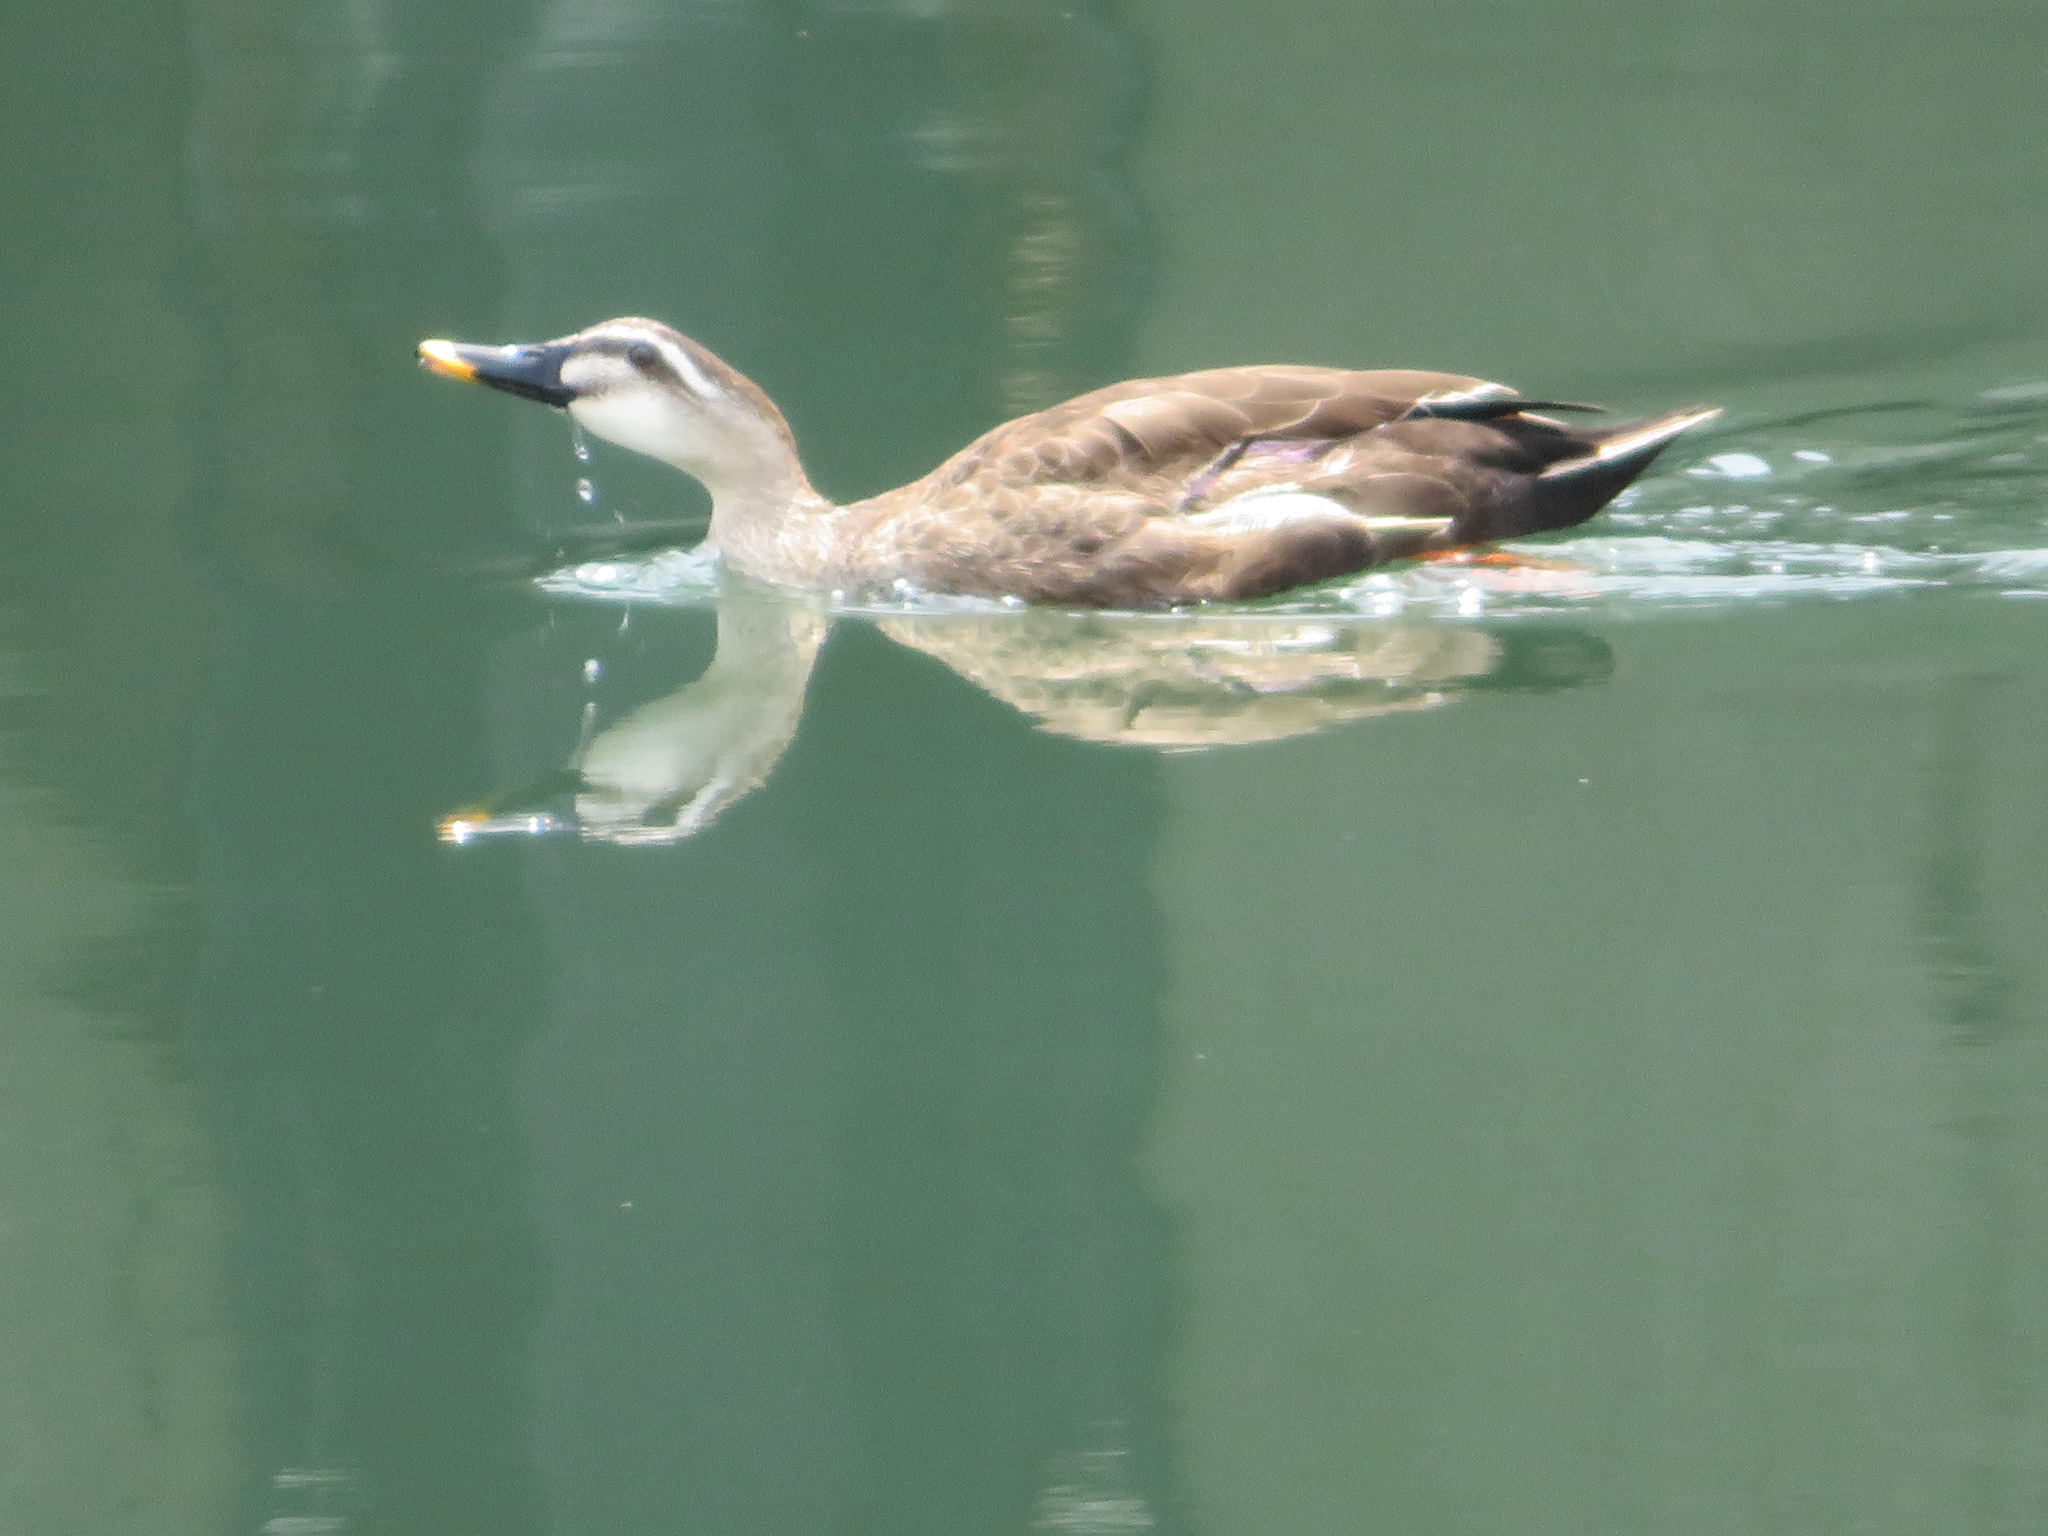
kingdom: Animalia
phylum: Chordata
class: Aves
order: Anseriformes
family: Anatidae
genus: Anas
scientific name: Anas zonorhyncha
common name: Eastern spot-billed duck
